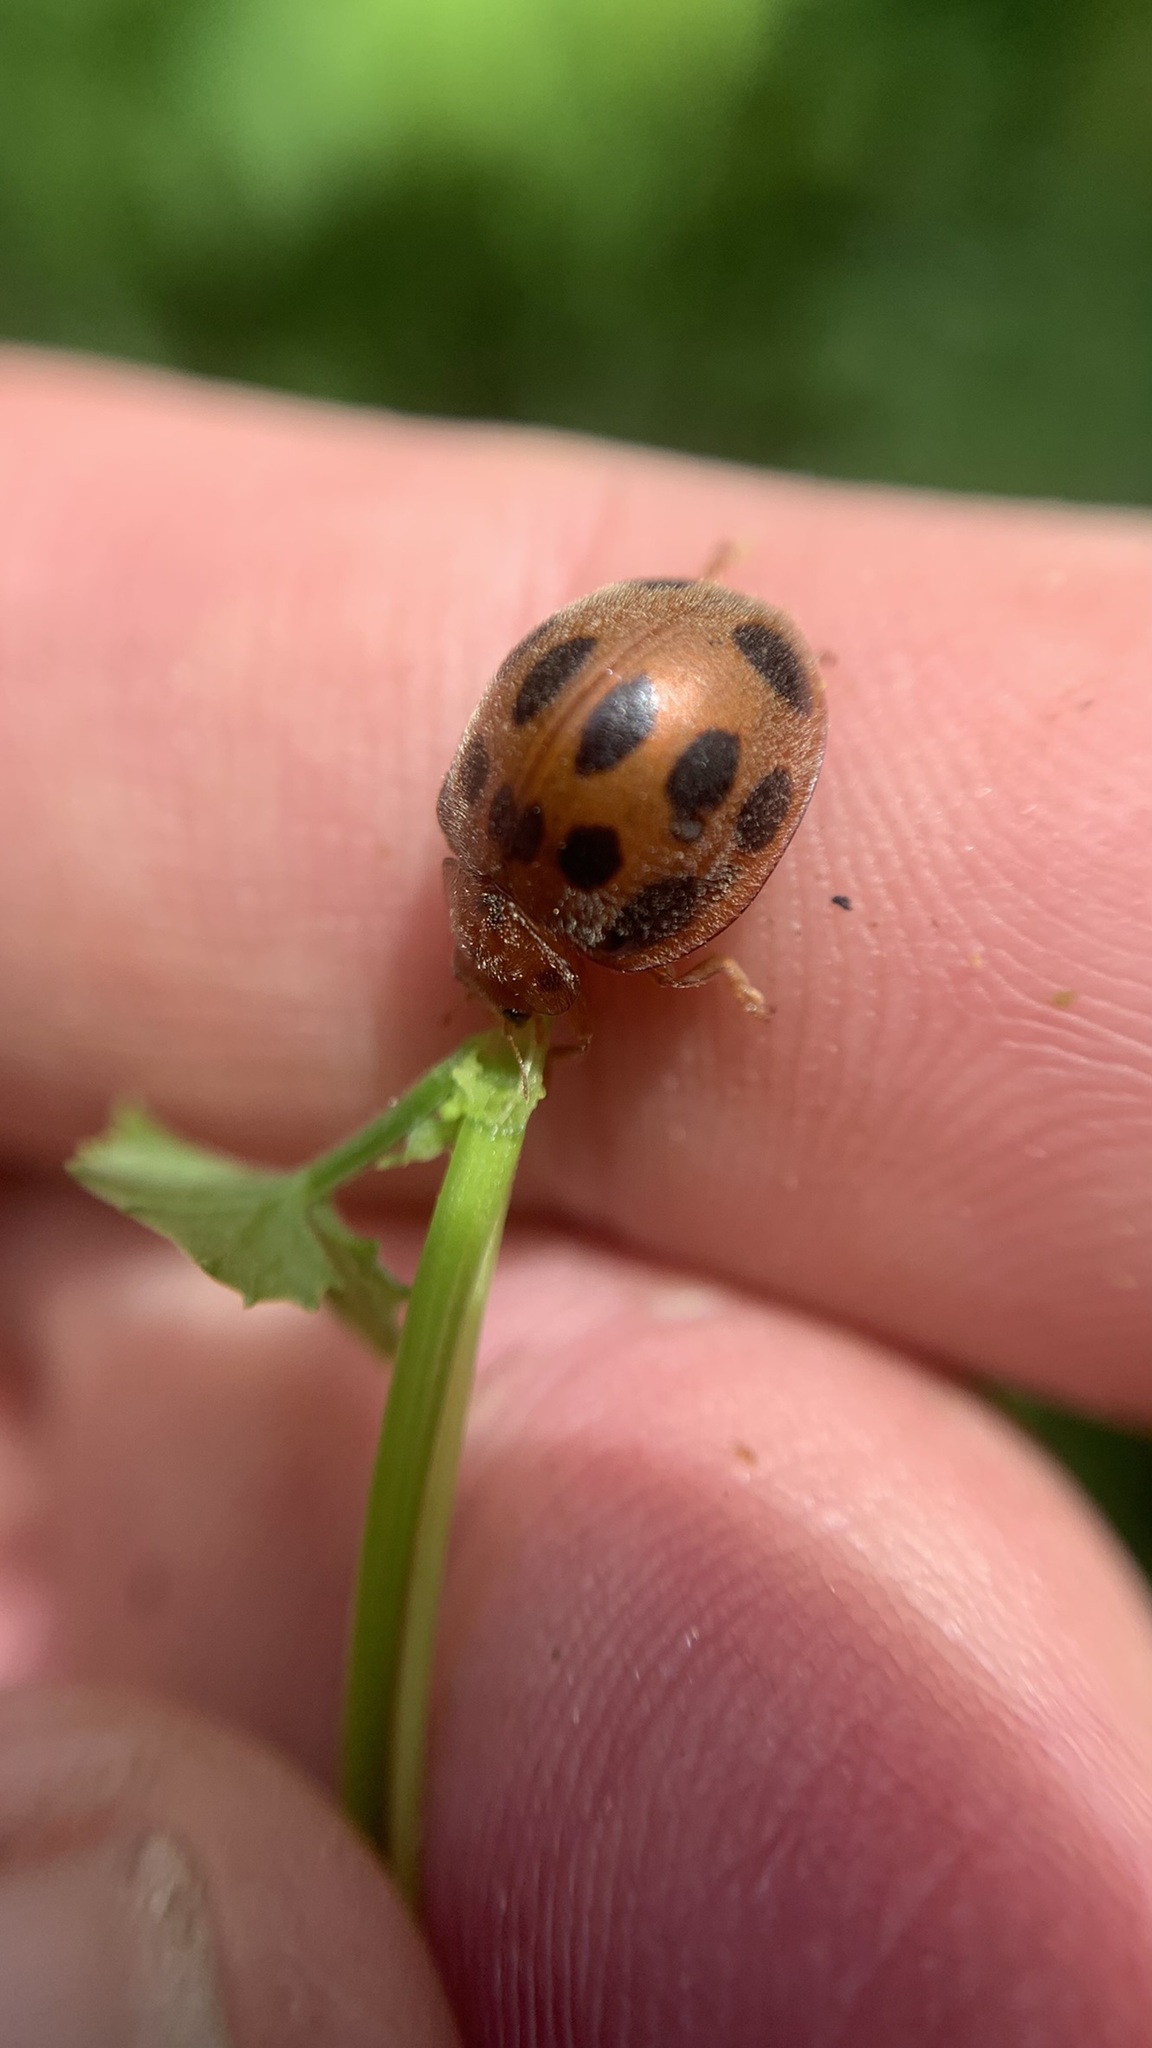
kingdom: Animalia
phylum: Arthropoda
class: Insecta
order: Coleoptera
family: Coccinellidae
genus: Epilachna
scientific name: Epilachna tredecimnotata
